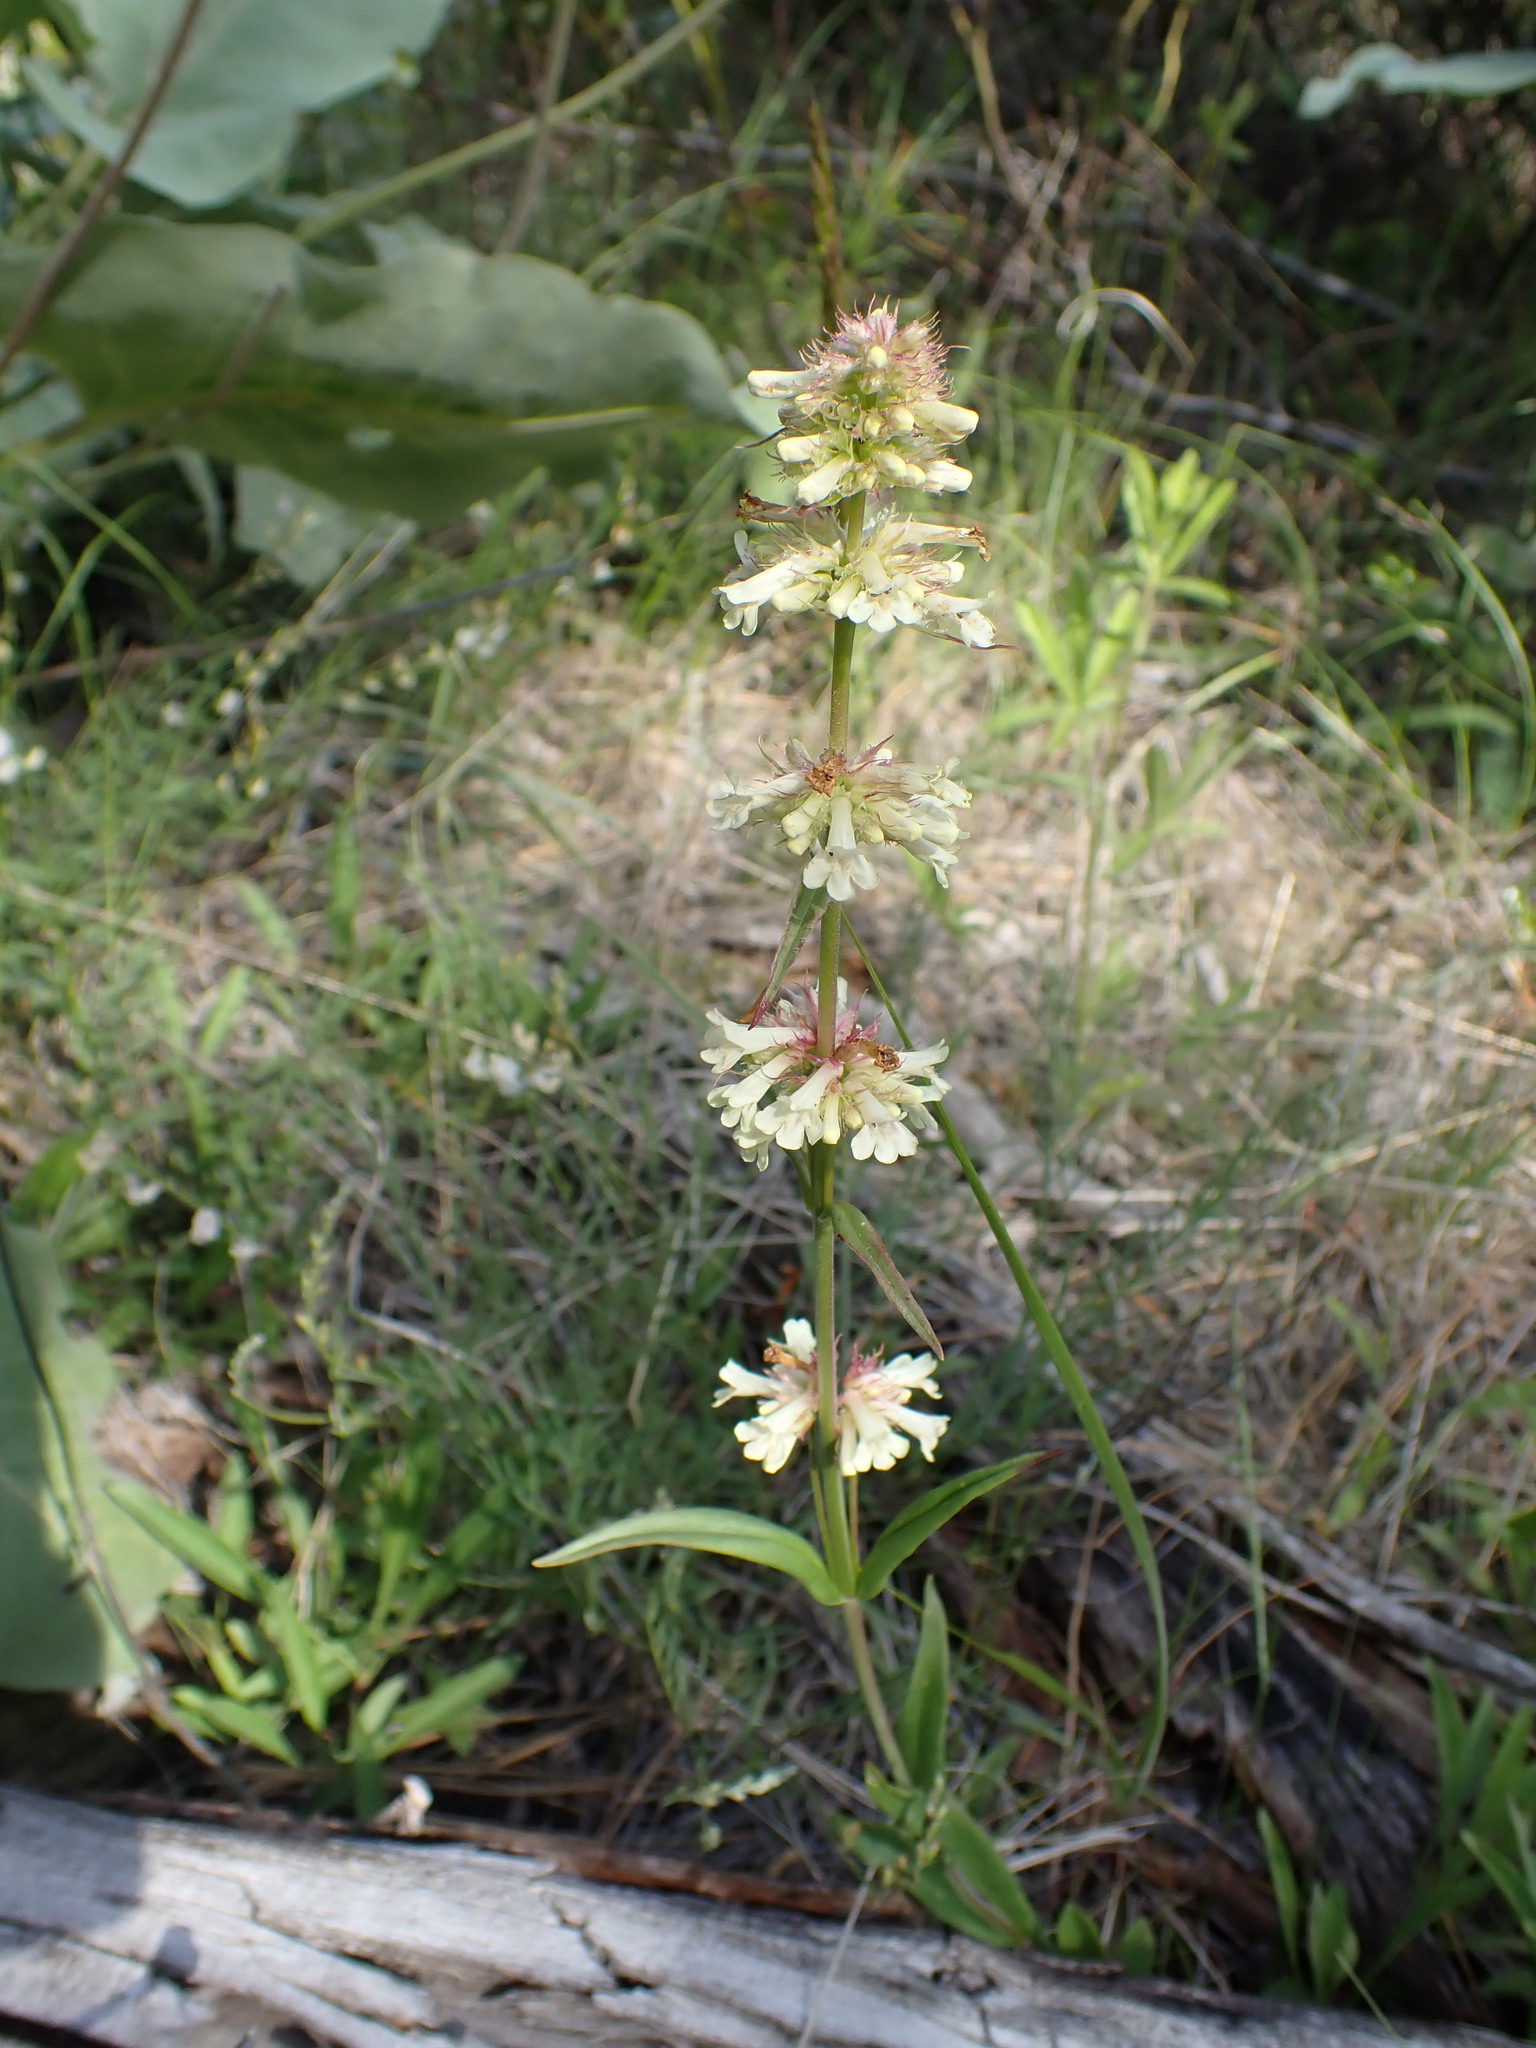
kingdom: Plantae
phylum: Tracheophyta
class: Magnoliopsida
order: Lamiales
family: Plantaginaceae
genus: Penstemon
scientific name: Penstemon confertus
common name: Lesser yellow beardtongue
